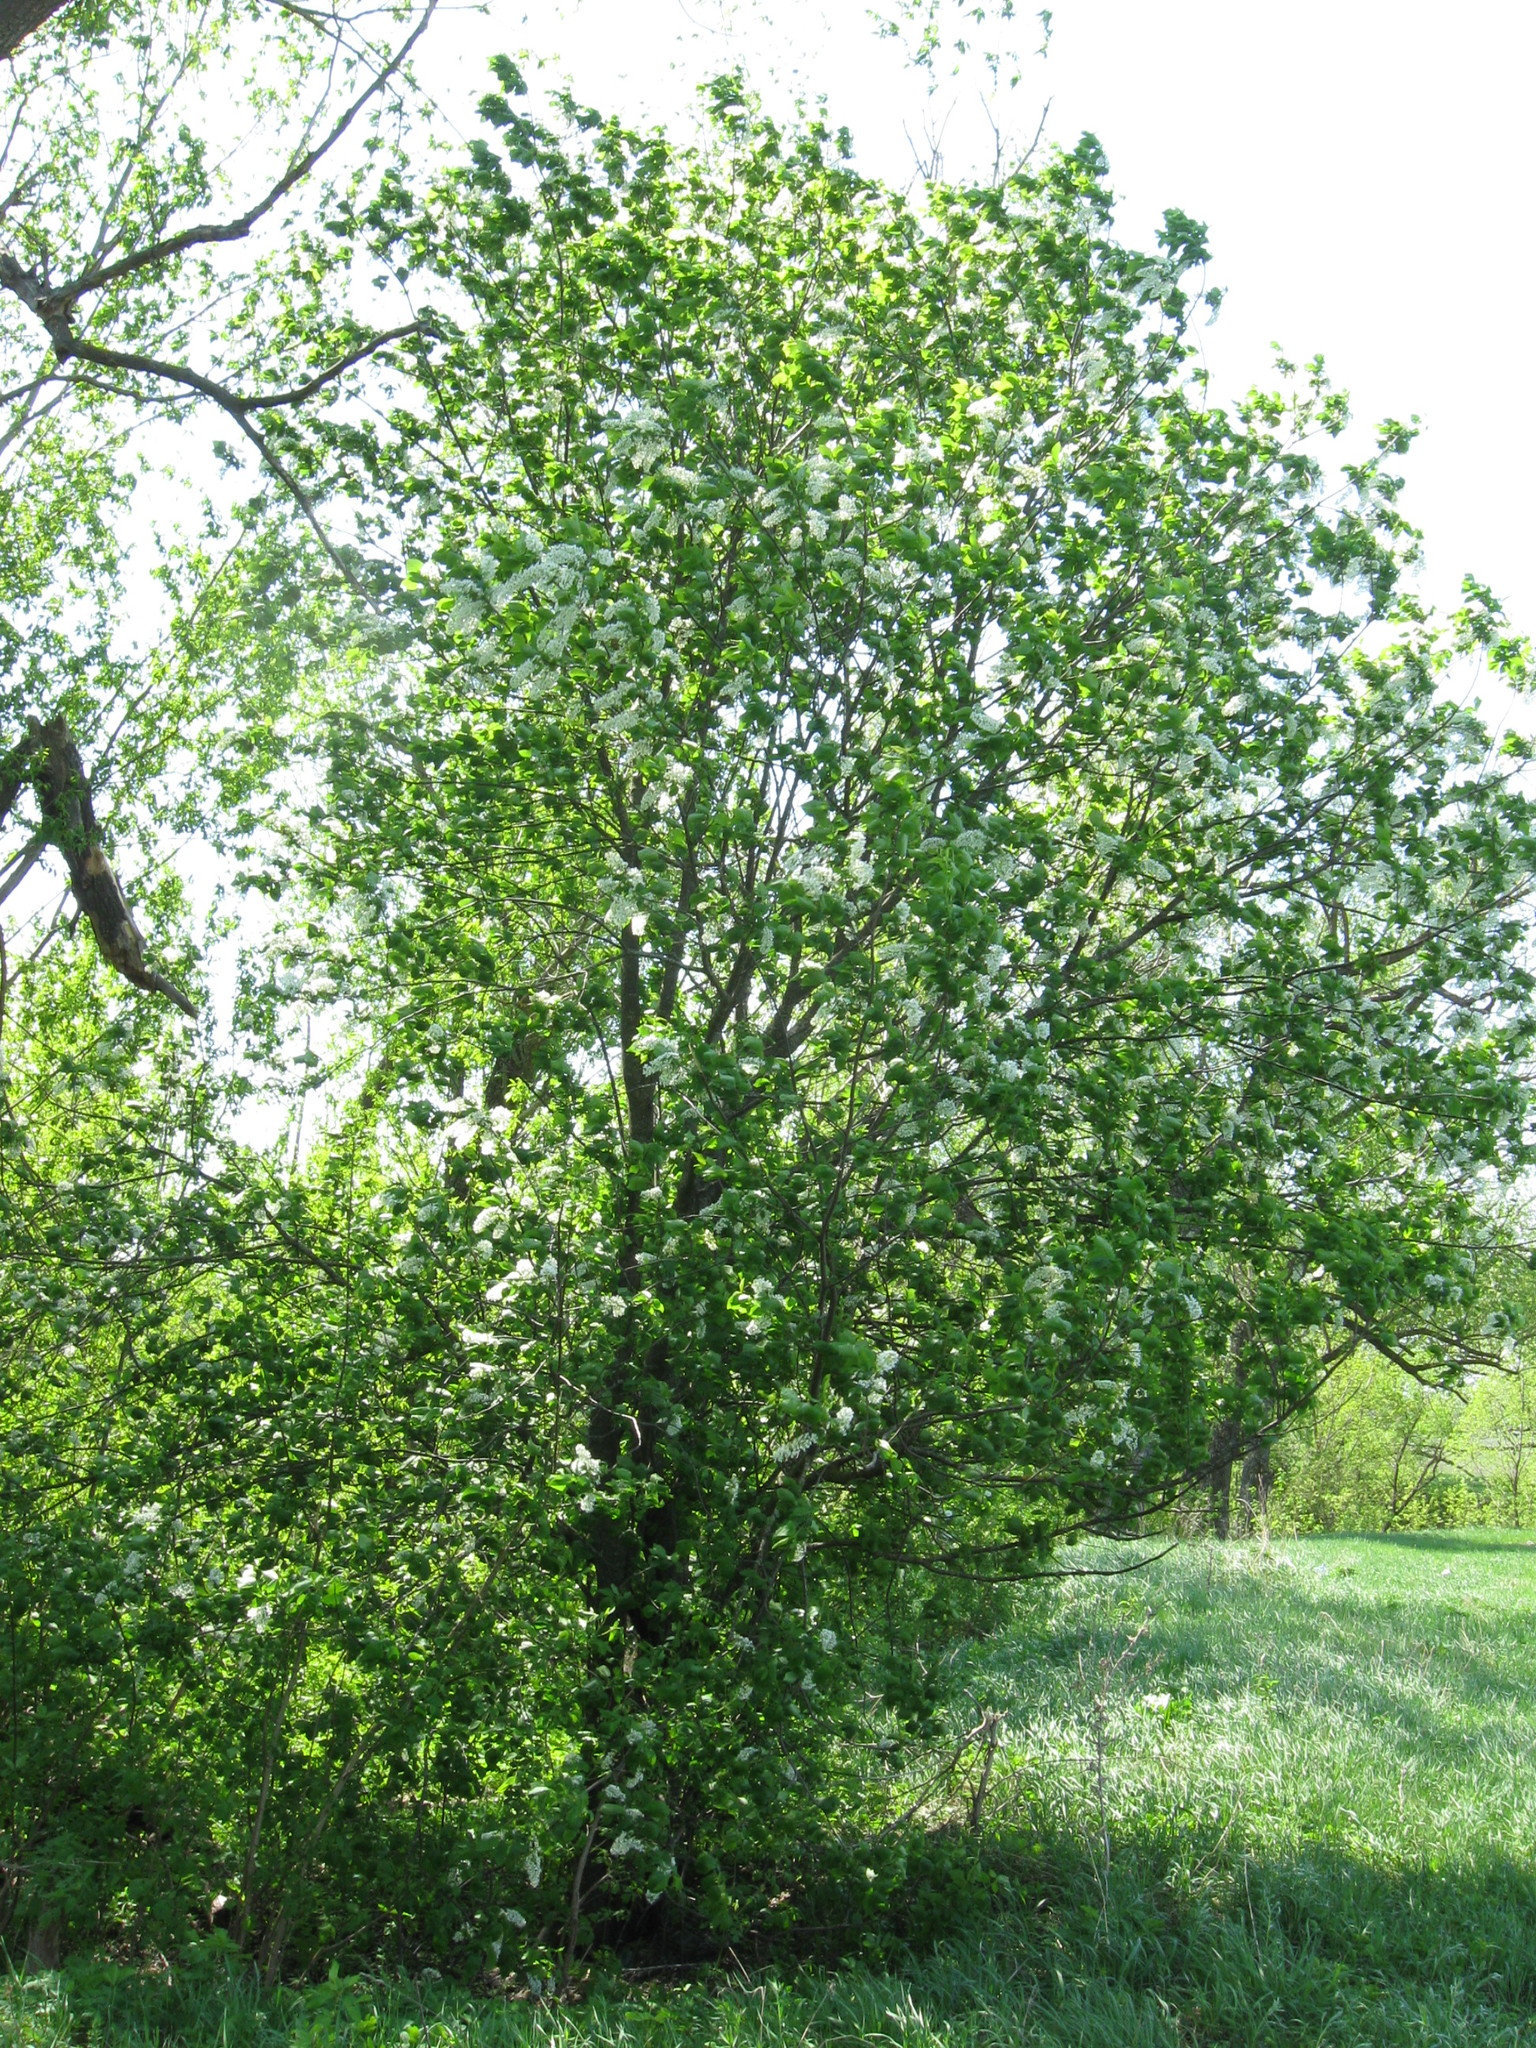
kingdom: Plantae
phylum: Tracheophyta
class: Magnoliopsida
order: Rosales
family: Rosaceae
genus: Prunus
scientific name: Prunus padus
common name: Bird cherry
